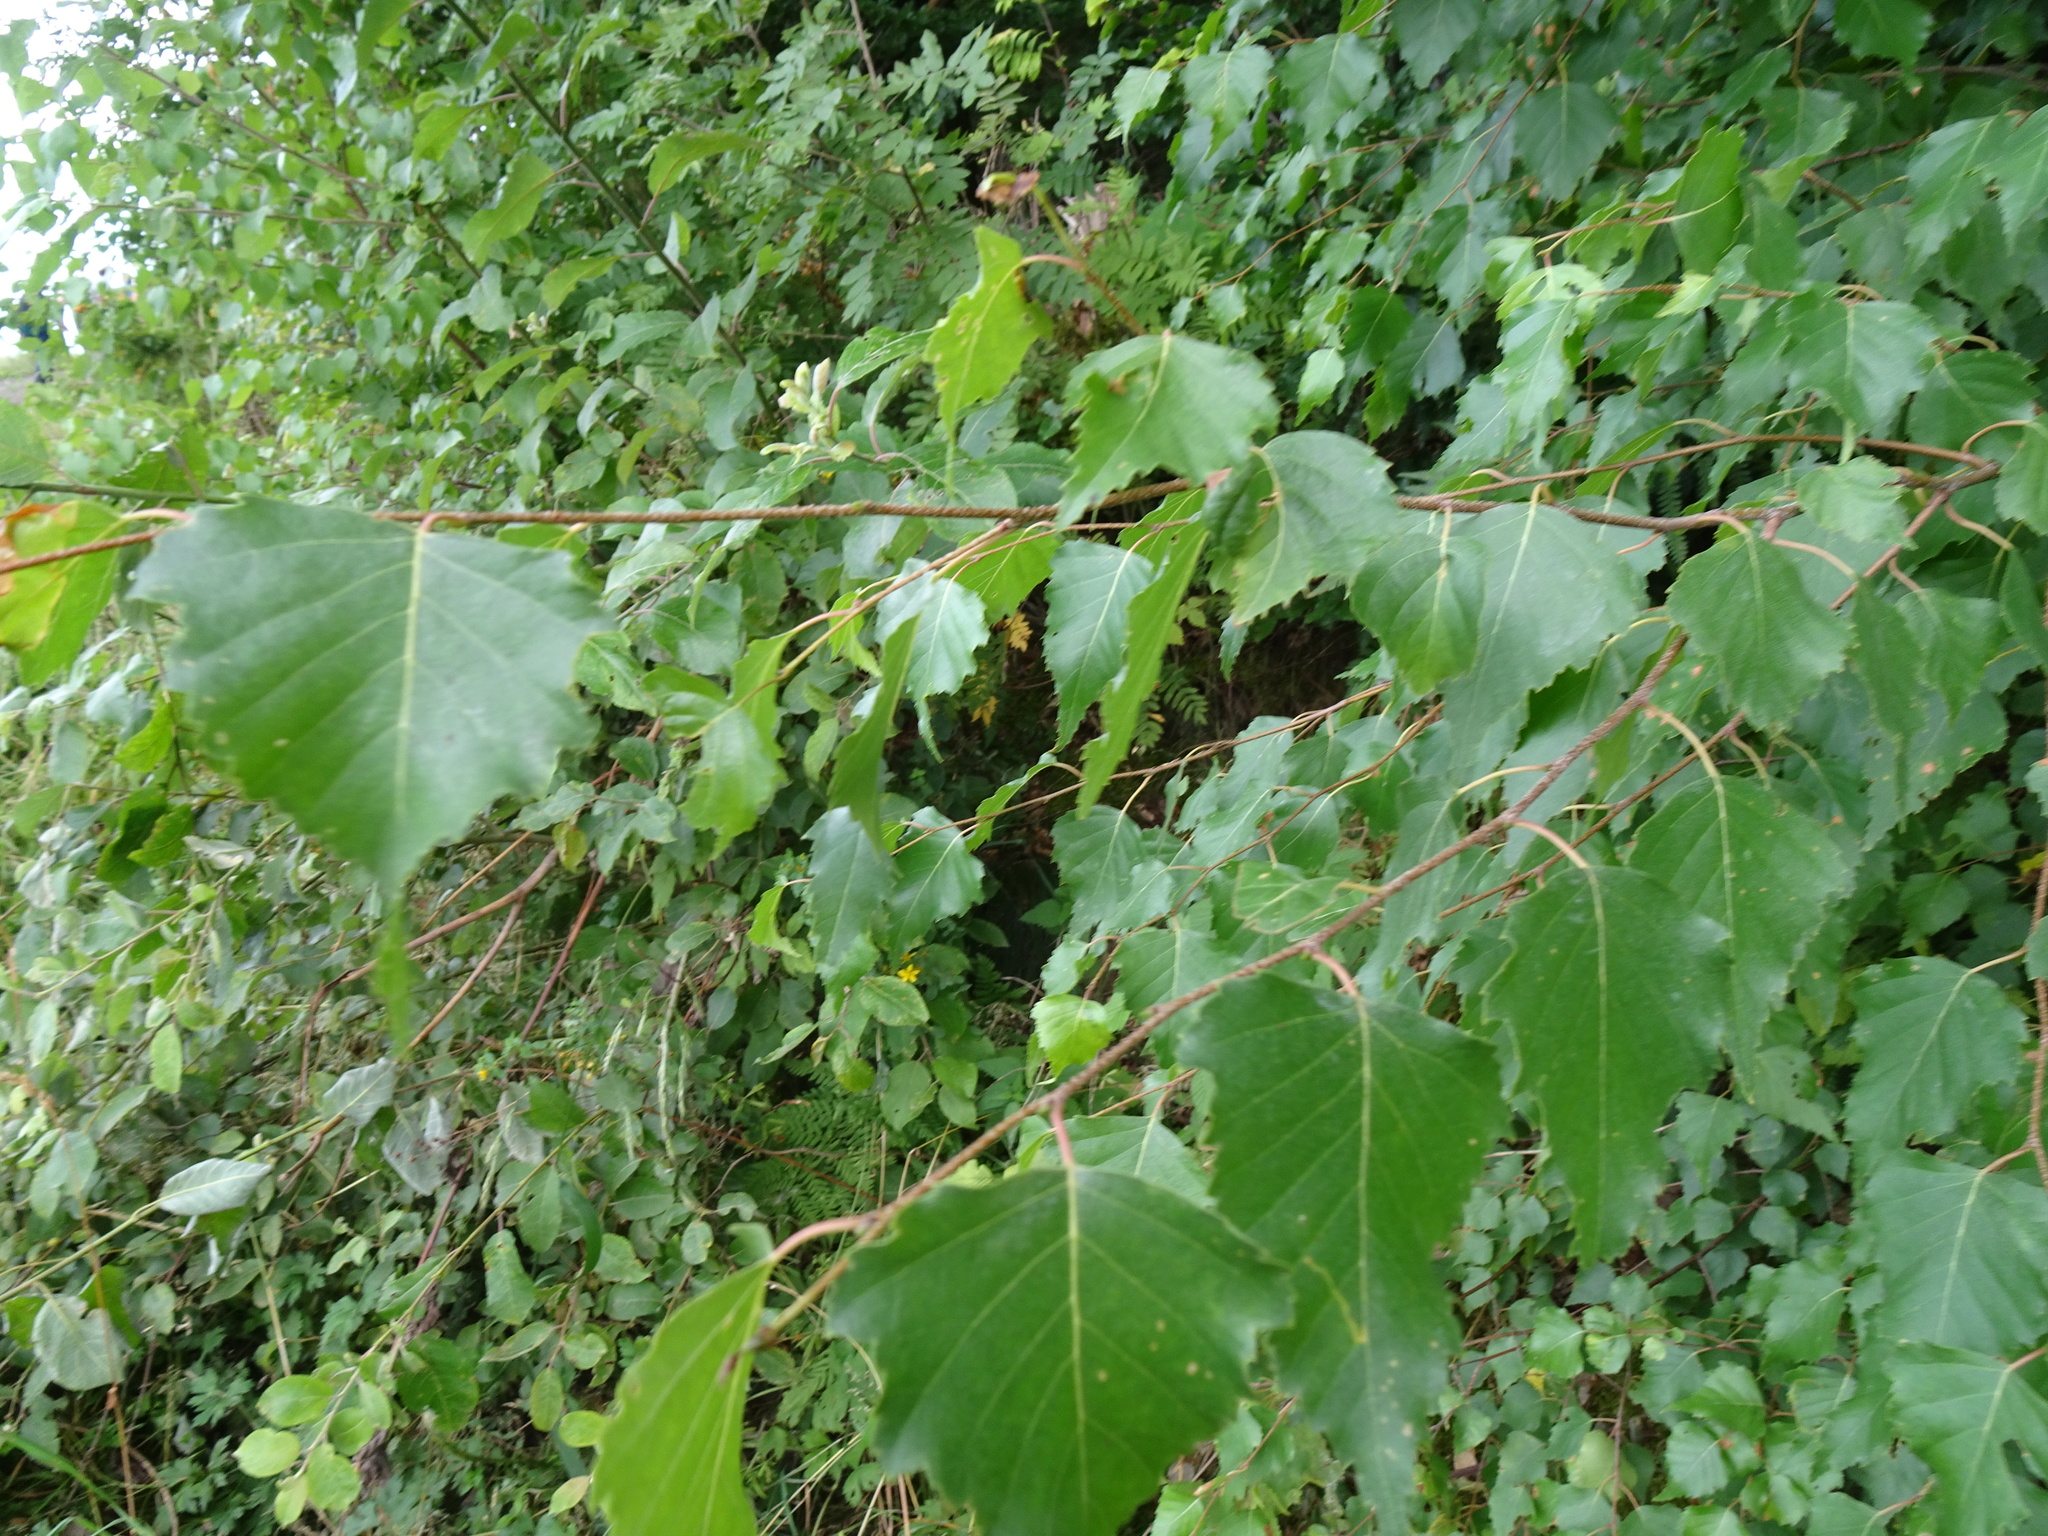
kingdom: Plantae
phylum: Tracheophyta
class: Magnoliopsida
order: Fagales
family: Betulaceae
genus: Betula
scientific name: Betula pendula
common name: Silver birch
